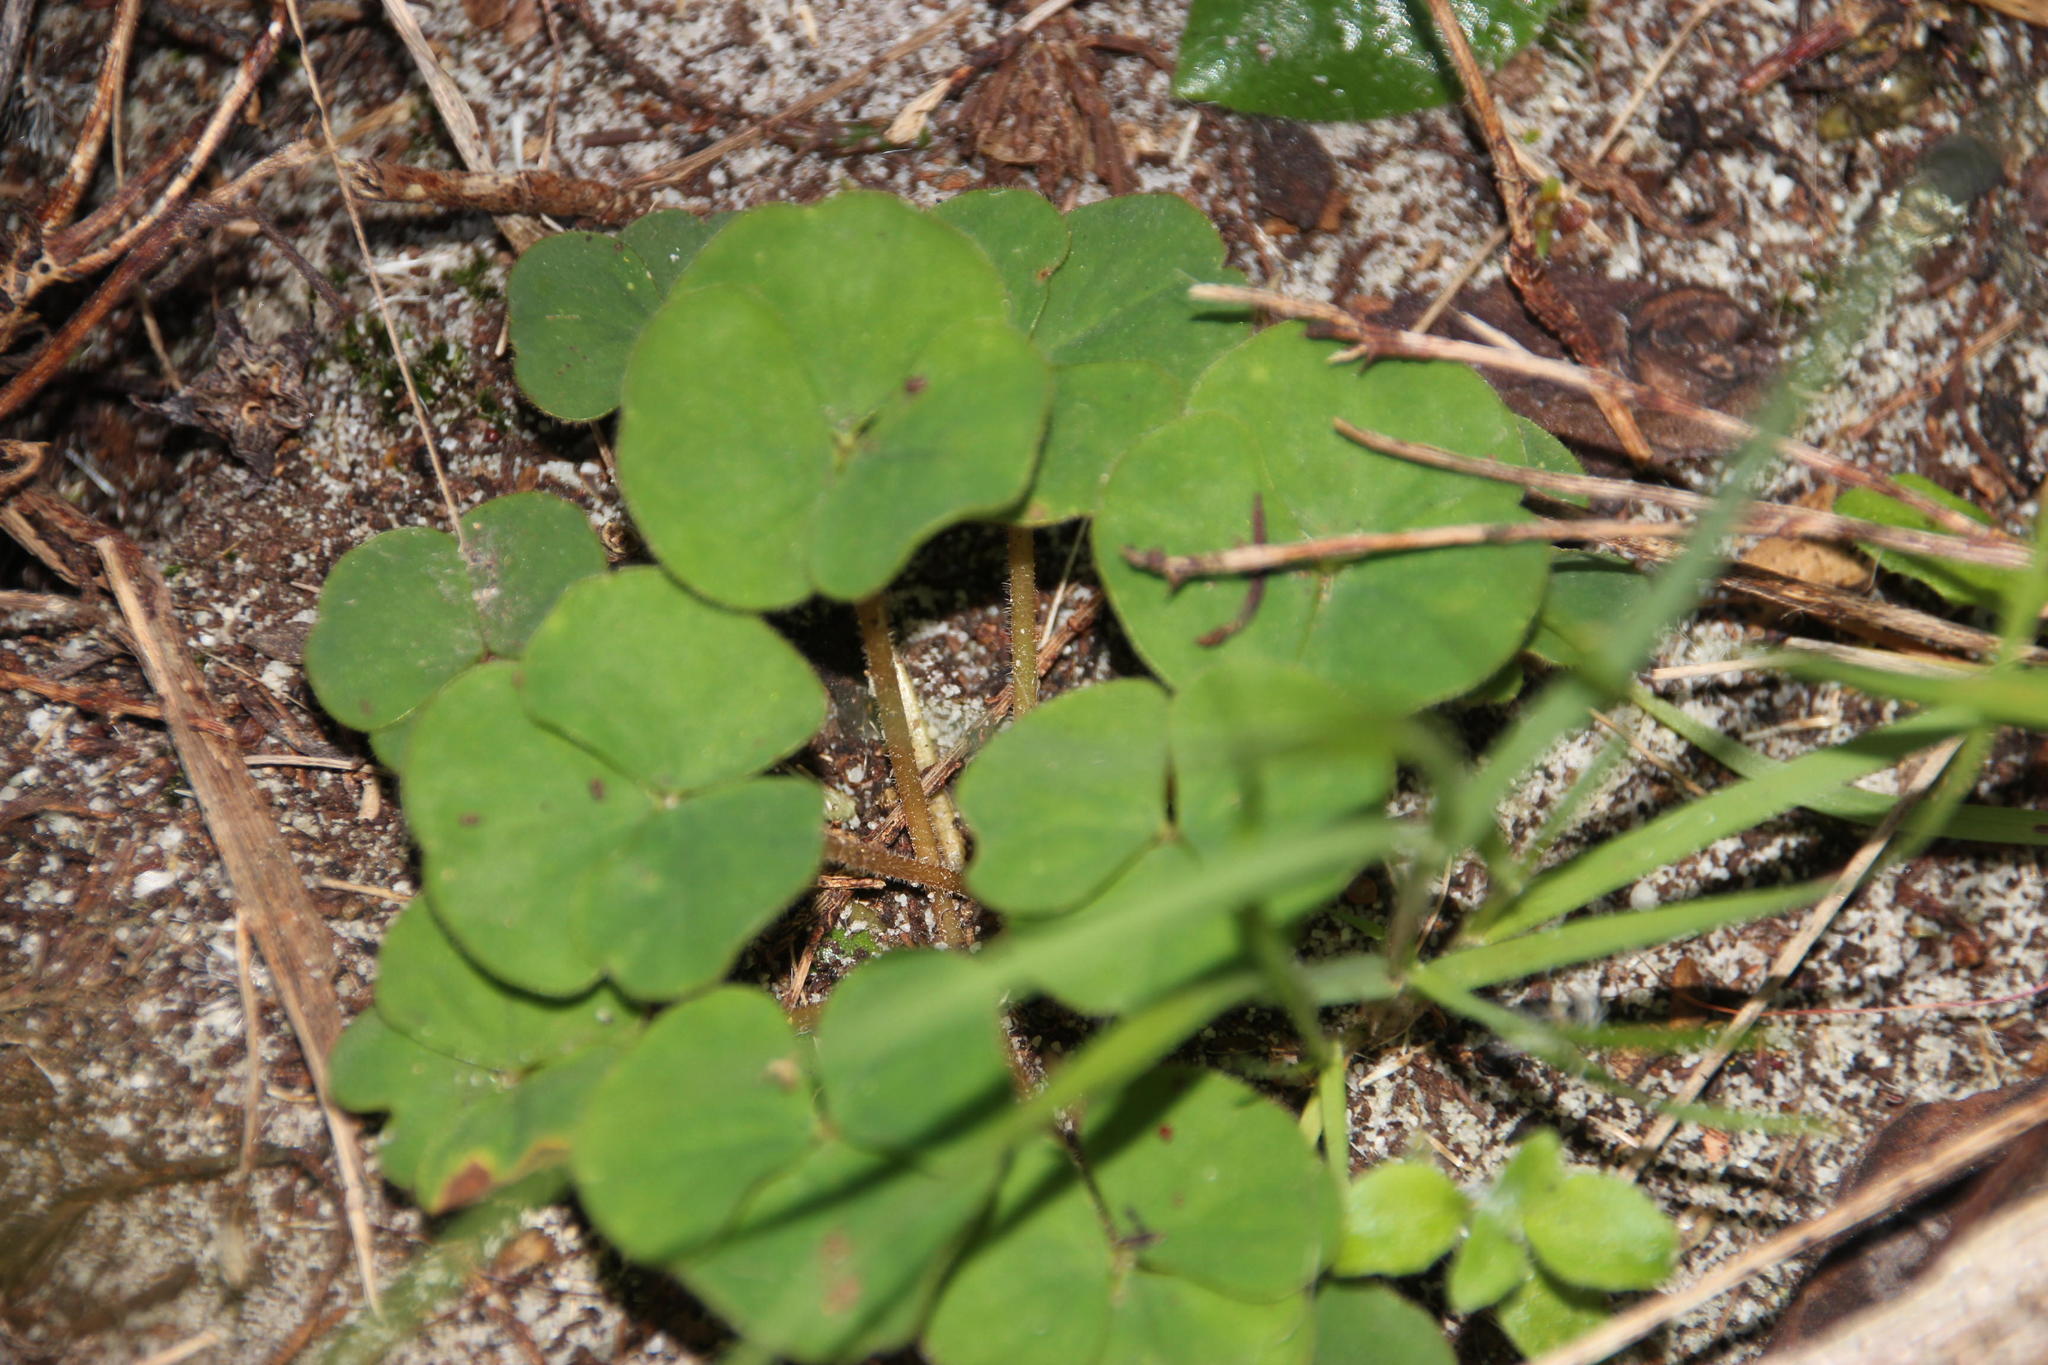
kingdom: Plantae
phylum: Tracheophyta
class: Magnoliopsida
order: Oxalidales
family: Oxalidaceae
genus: Oxalis
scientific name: Oxalis luteola
